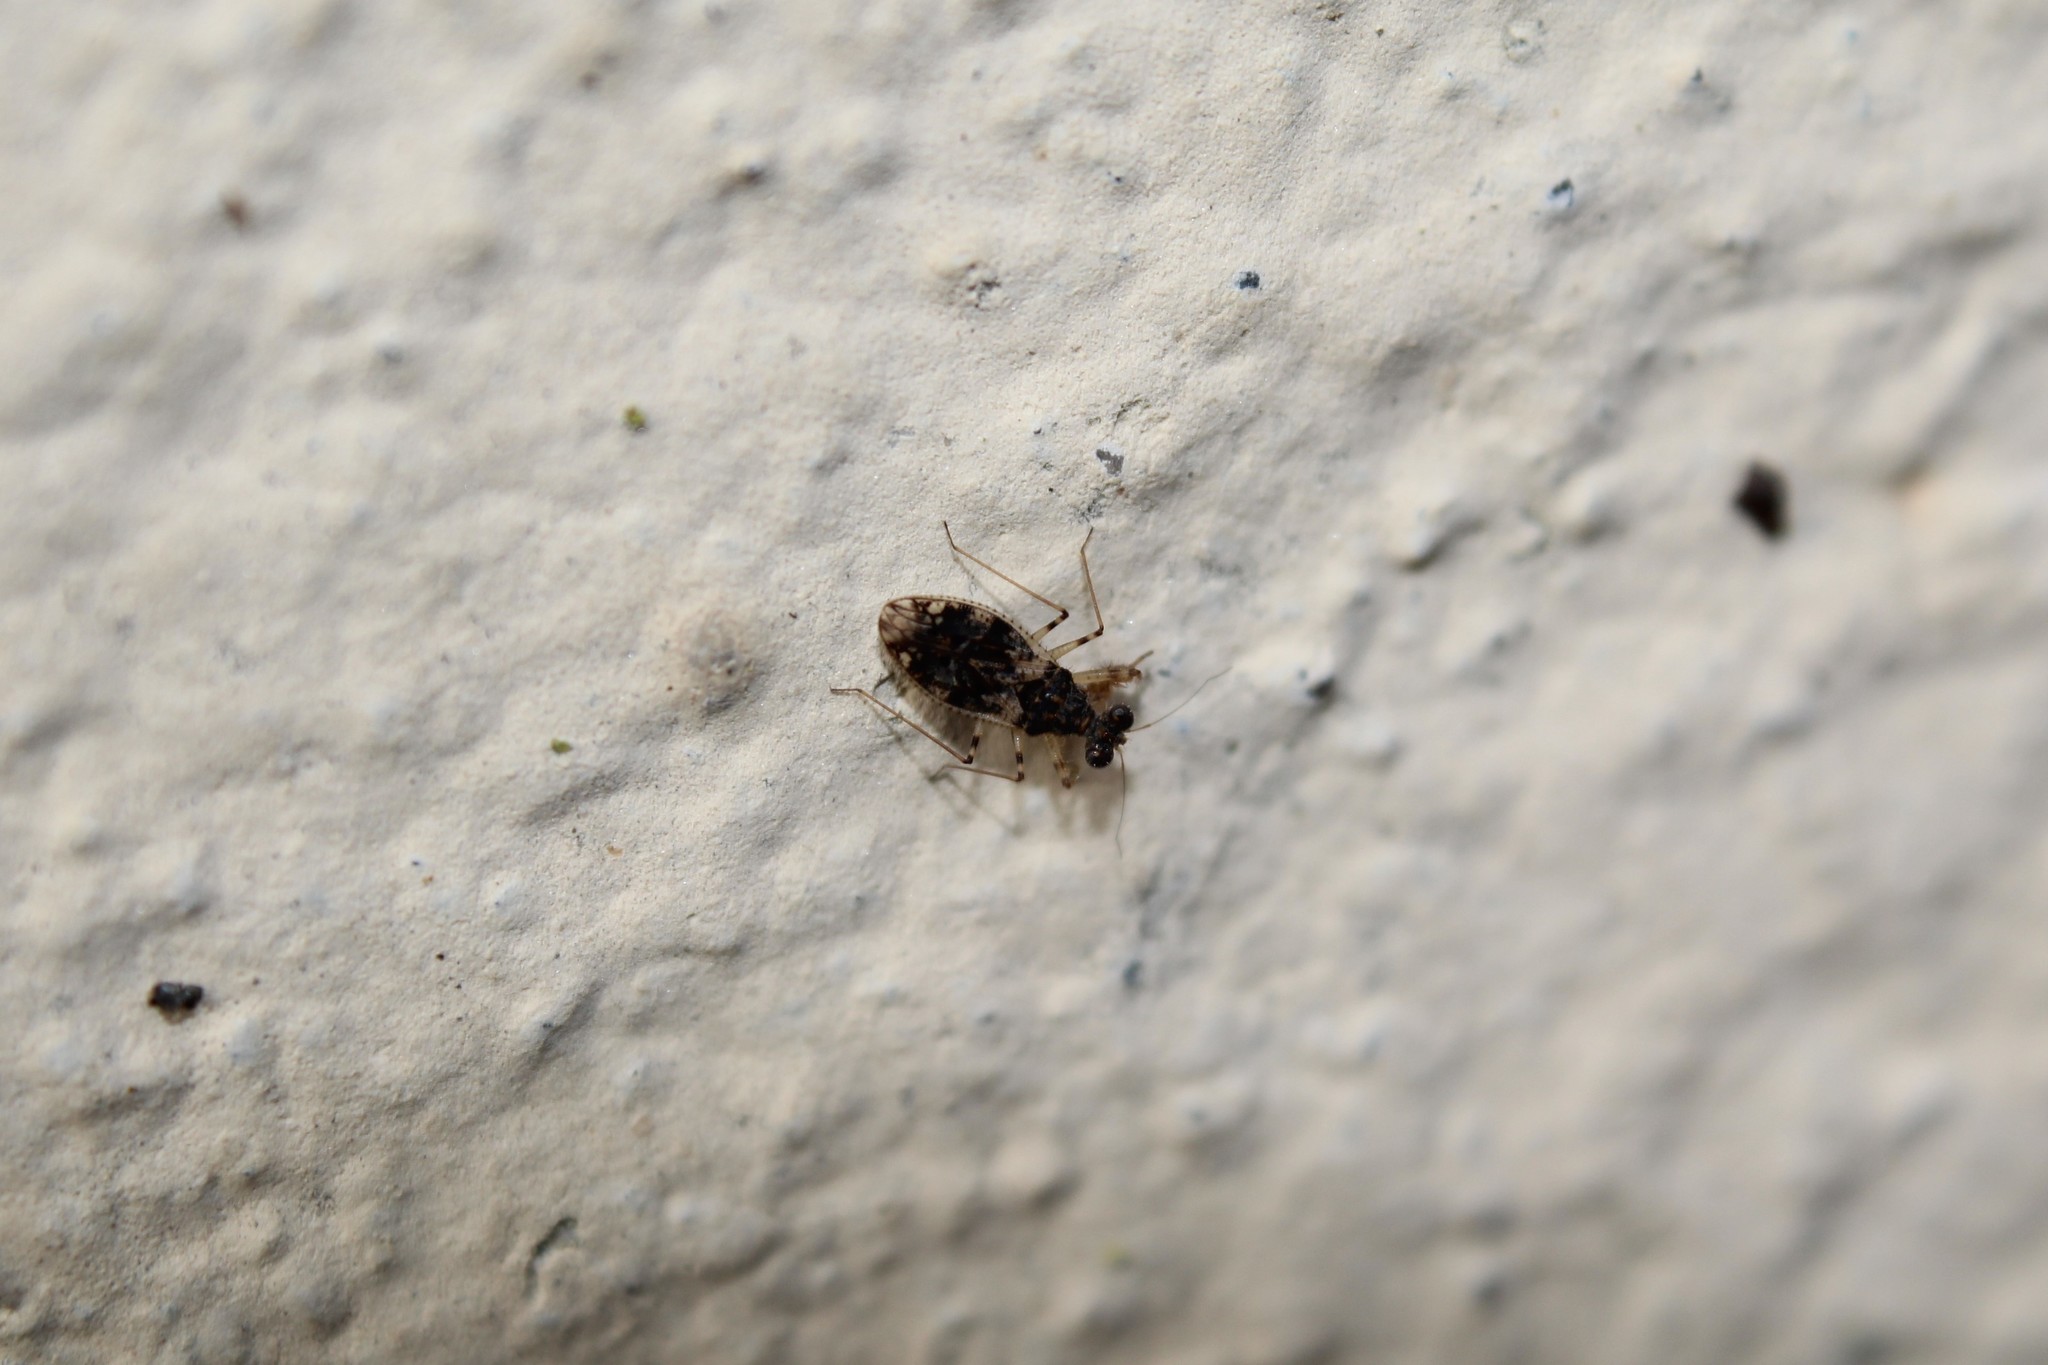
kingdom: Animalia
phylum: Arthropoda
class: Insecta
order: Hemiptera
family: Leptopodidae
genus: Leptopus
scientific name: Leptopus marmoratus
